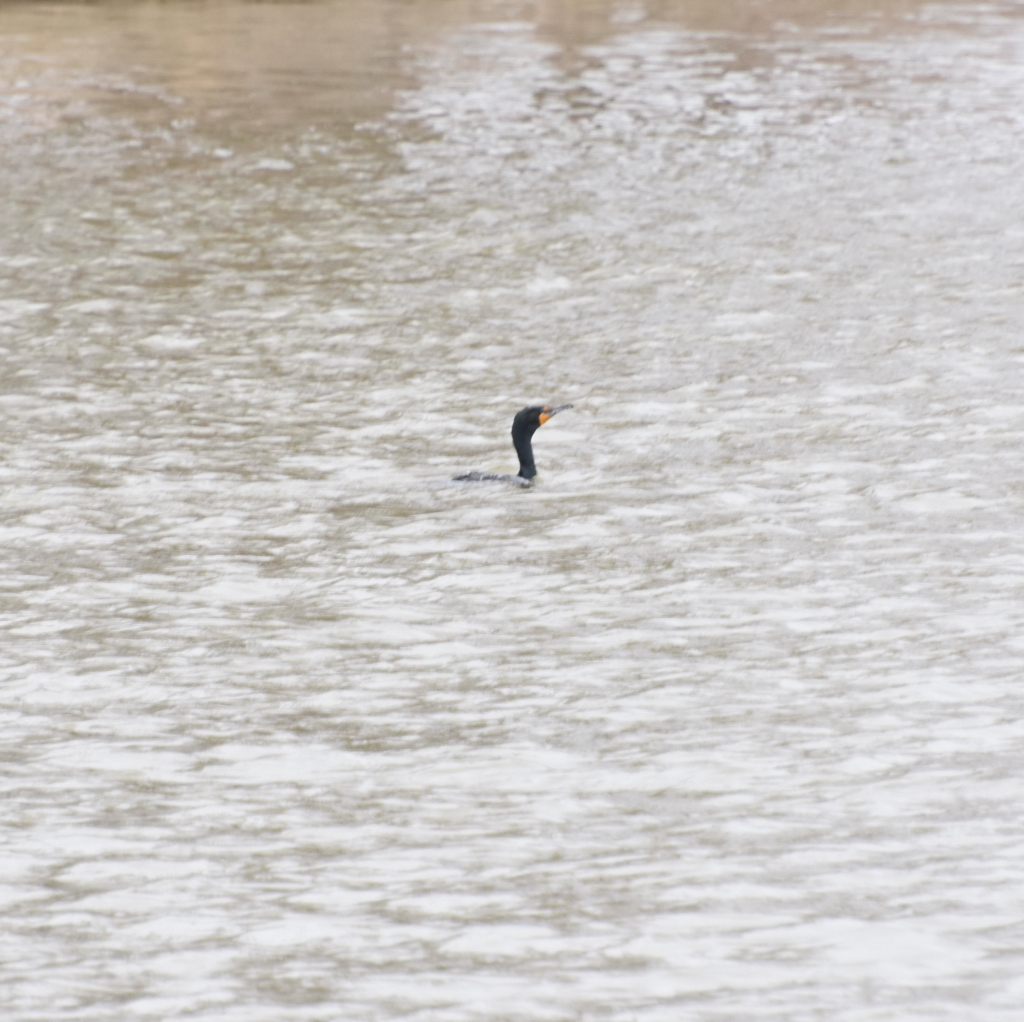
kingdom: Animalia
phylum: Chordata
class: Aves
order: Suliformes
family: Phalacrocoracidae
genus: Phalacrocorax
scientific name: Phalacrocorax auritus
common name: Double-crested cormorant
